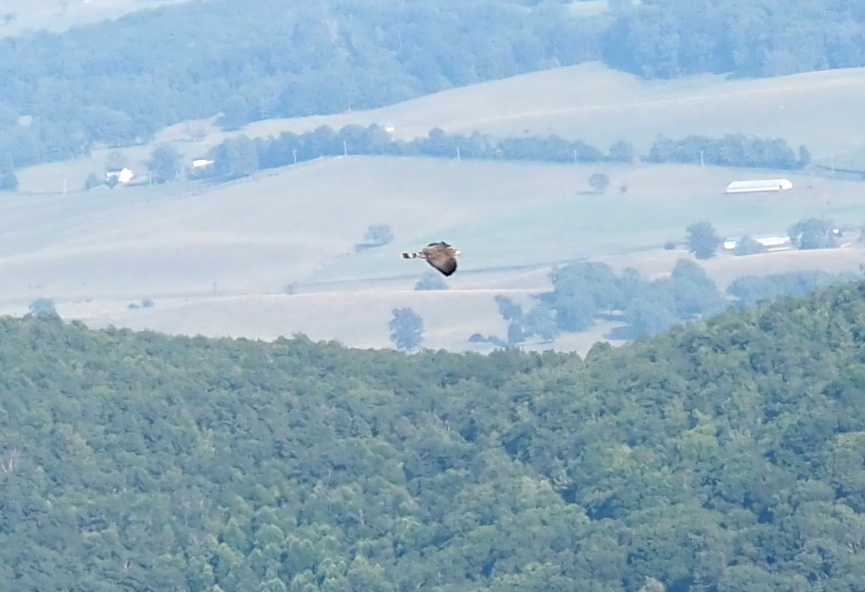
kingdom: Animalia
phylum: Chordata
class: Aves
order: Accipitriformes
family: Accipitridae
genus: Buteo
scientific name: Buteo platypterus
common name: Broad-winged hawk
